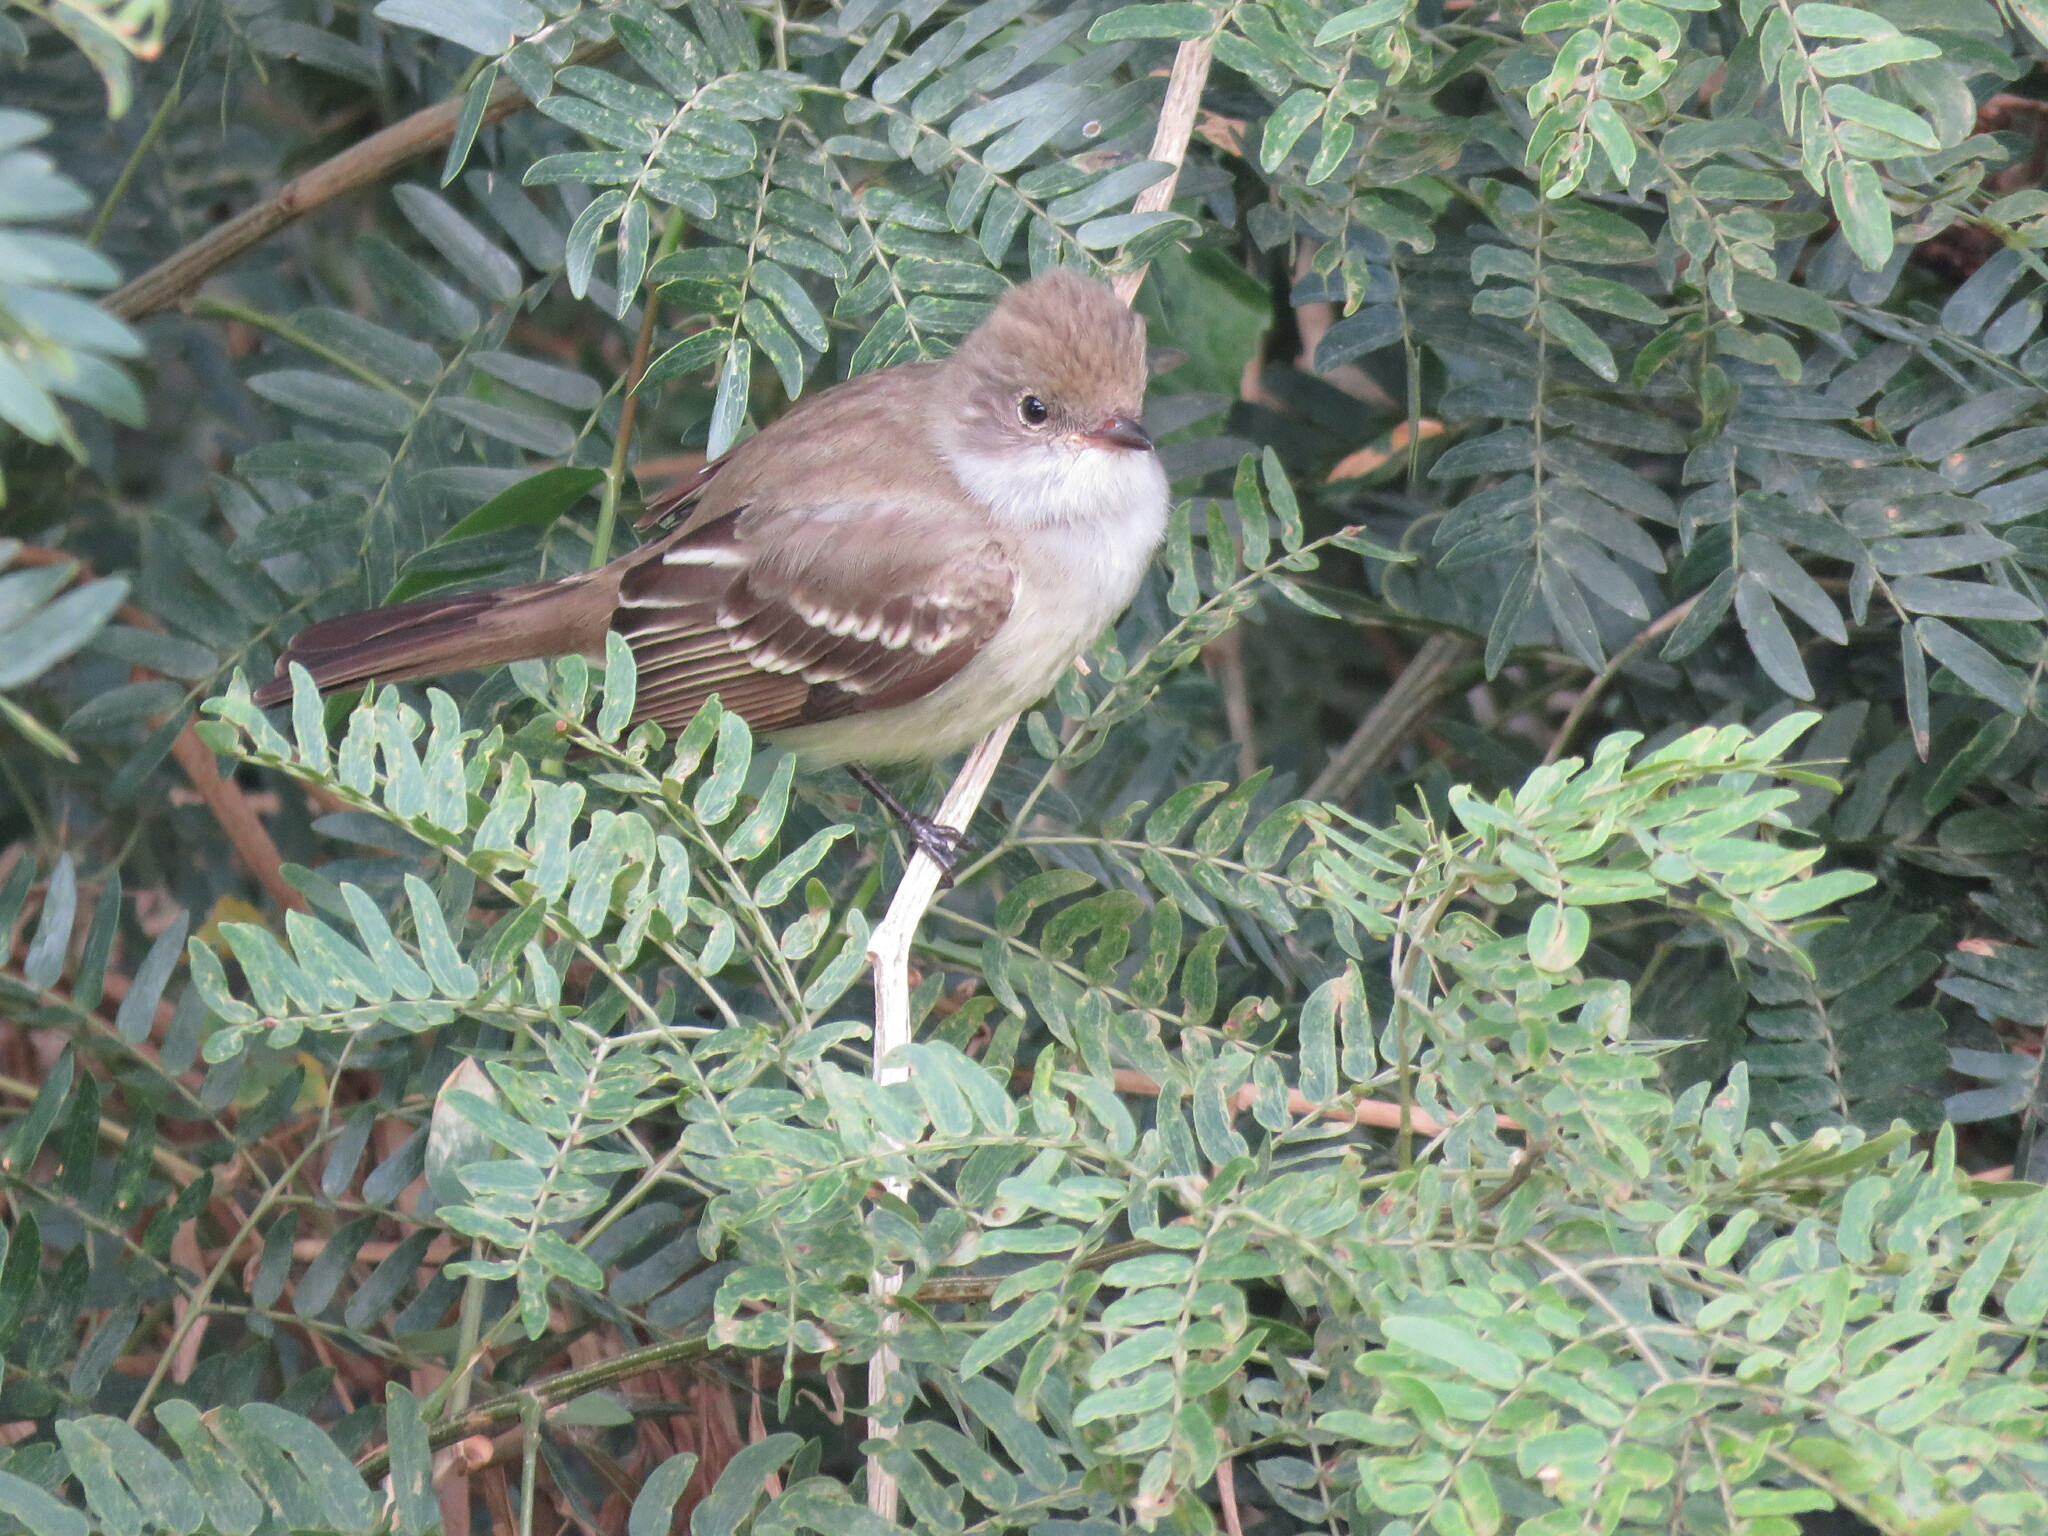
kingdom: Animalia
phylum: Chordata
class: Aves
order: Passeriformes
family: Tyrannidae
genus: Elaenia
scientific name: Elaenia spectabilis
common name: Large elaenia
